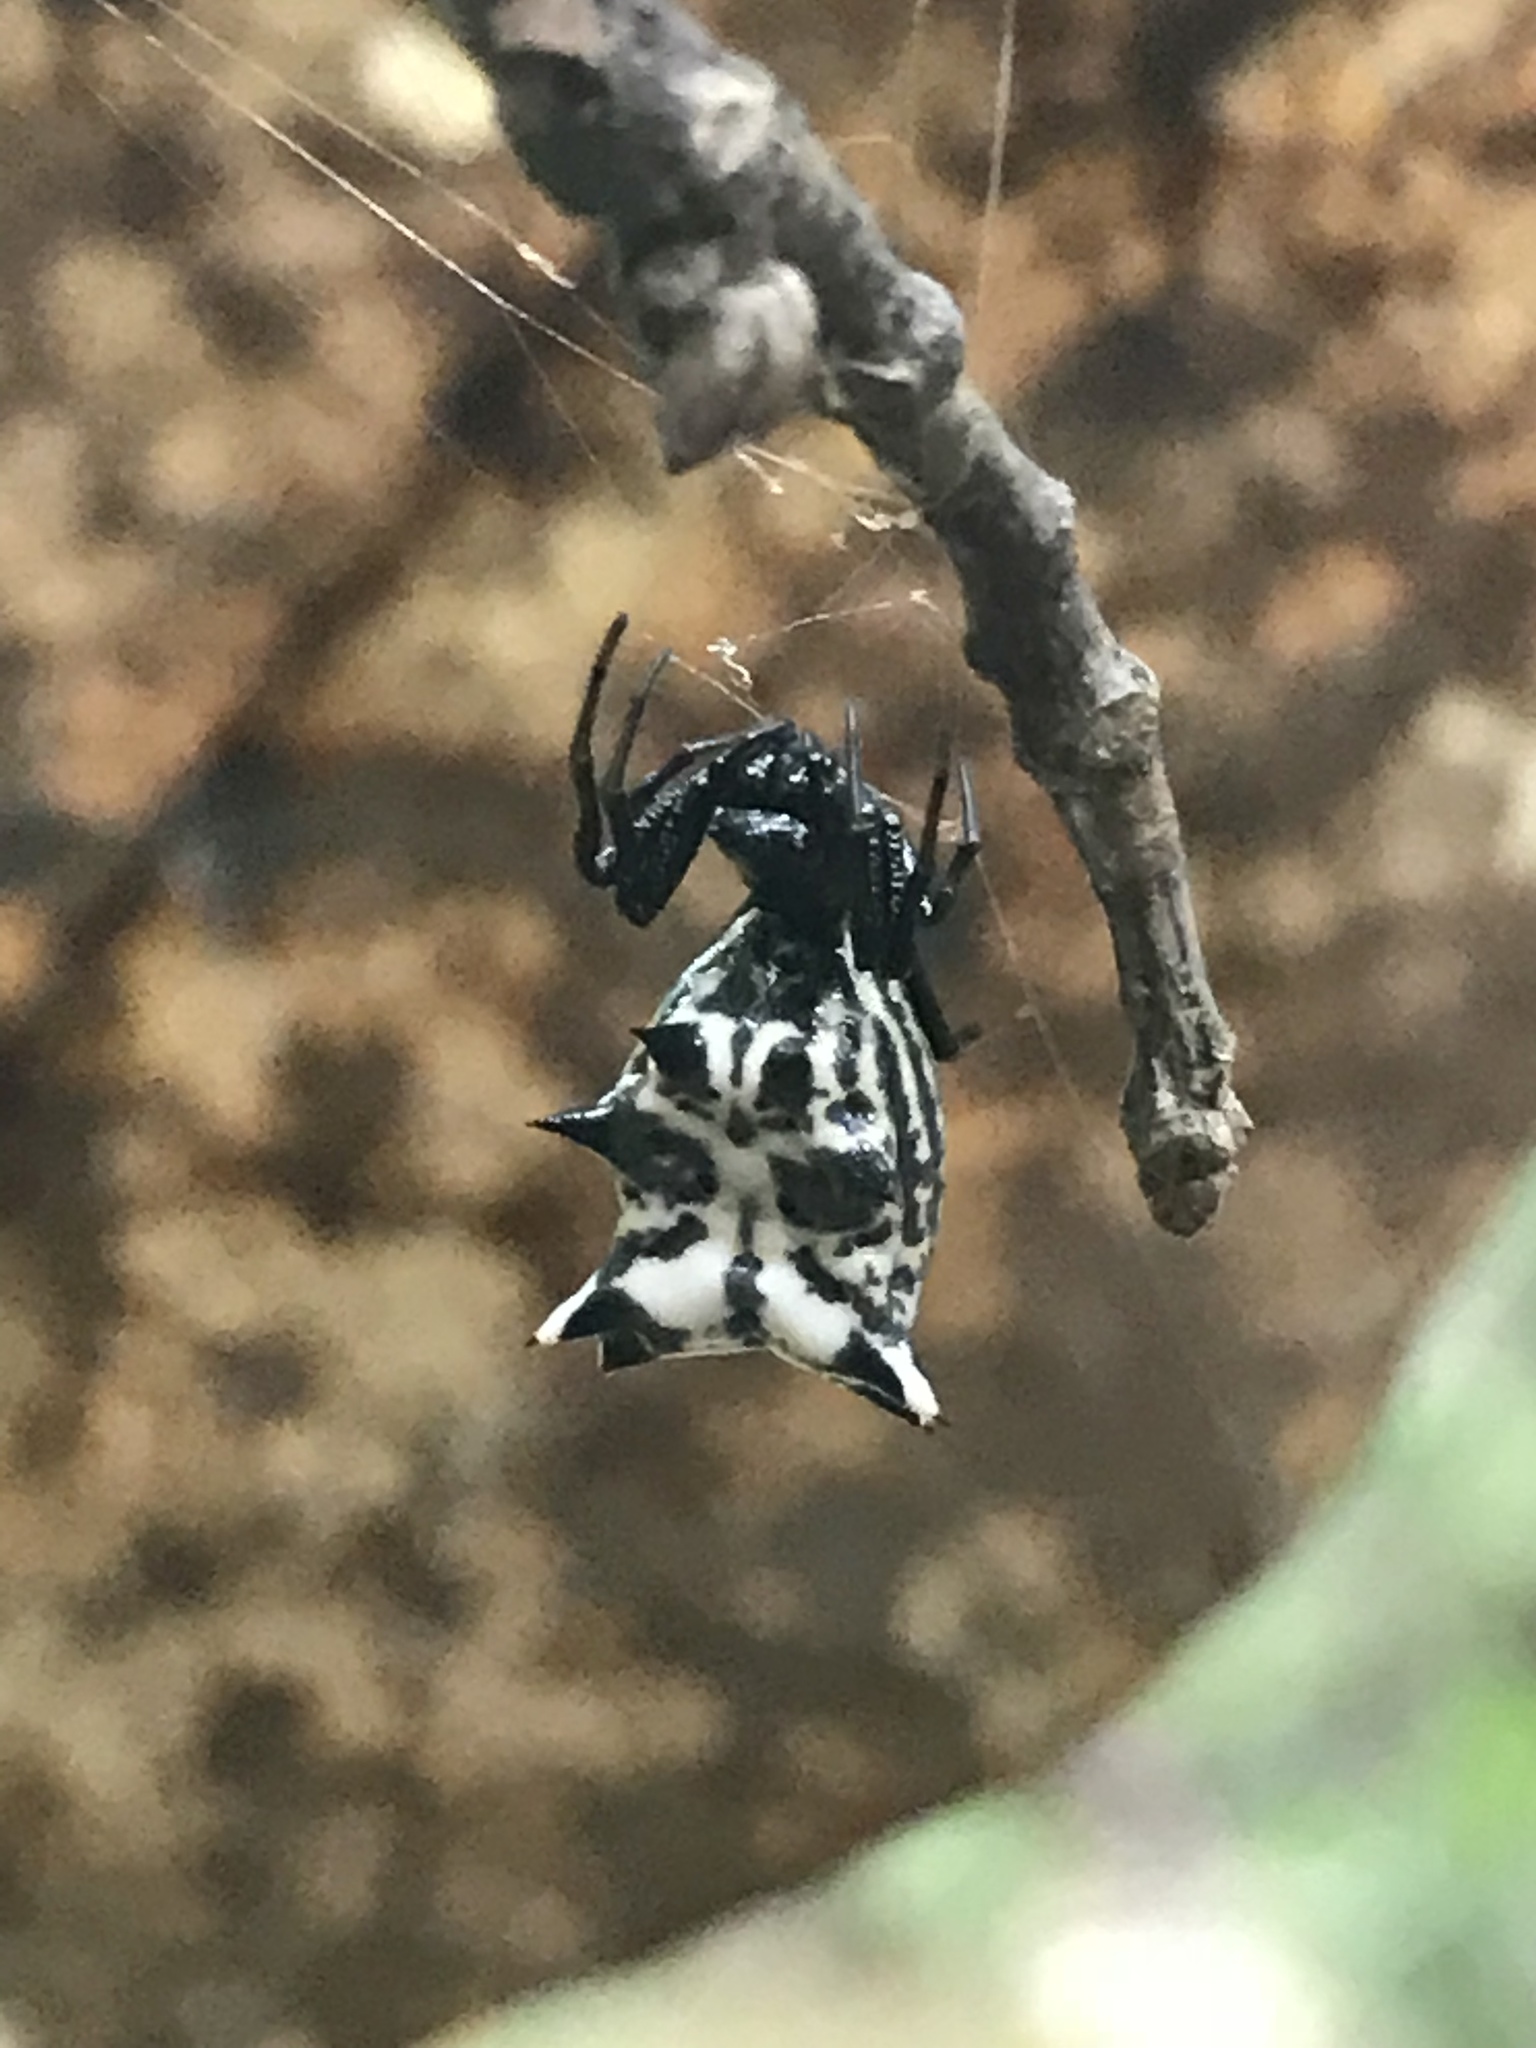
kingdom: Animalia
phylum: Arthropoda
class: Arachnida
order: Araneae
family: Araneidae
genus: Micrathena
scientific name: Micrathena gracilis
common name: Orb weavers
